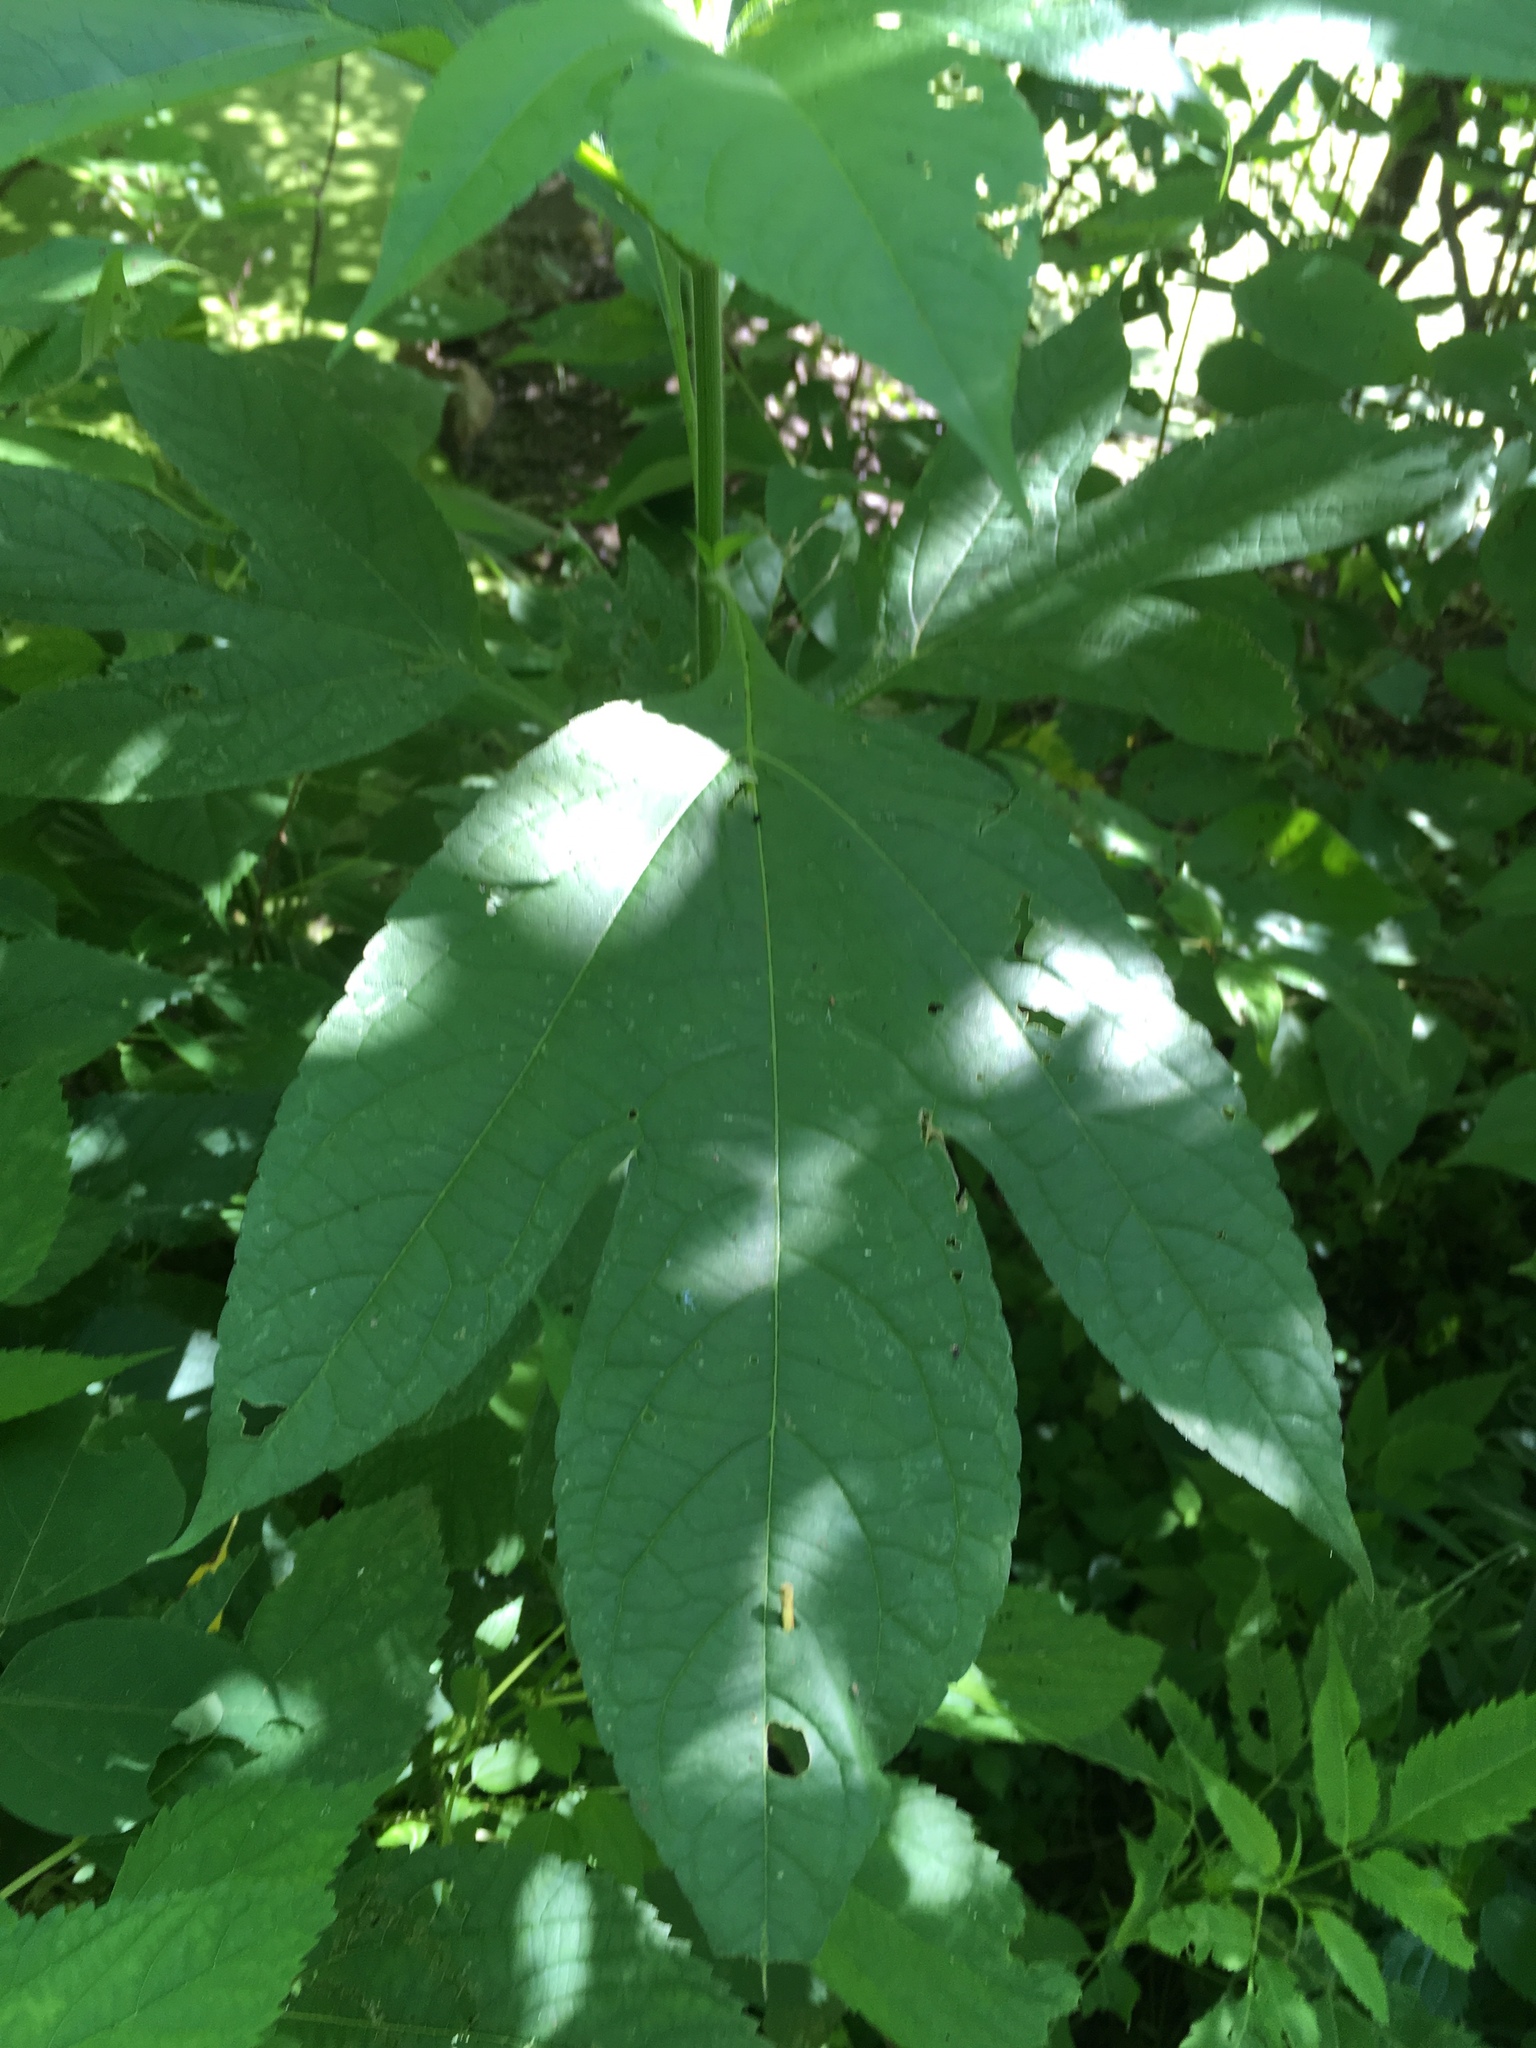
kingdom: Plantae
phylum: Tracheophyta
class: Magnoliopsida
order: Asterales
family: Asteraceae
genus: Ambrosia
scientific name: Ambrosia trifida
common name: Giant ragweed
